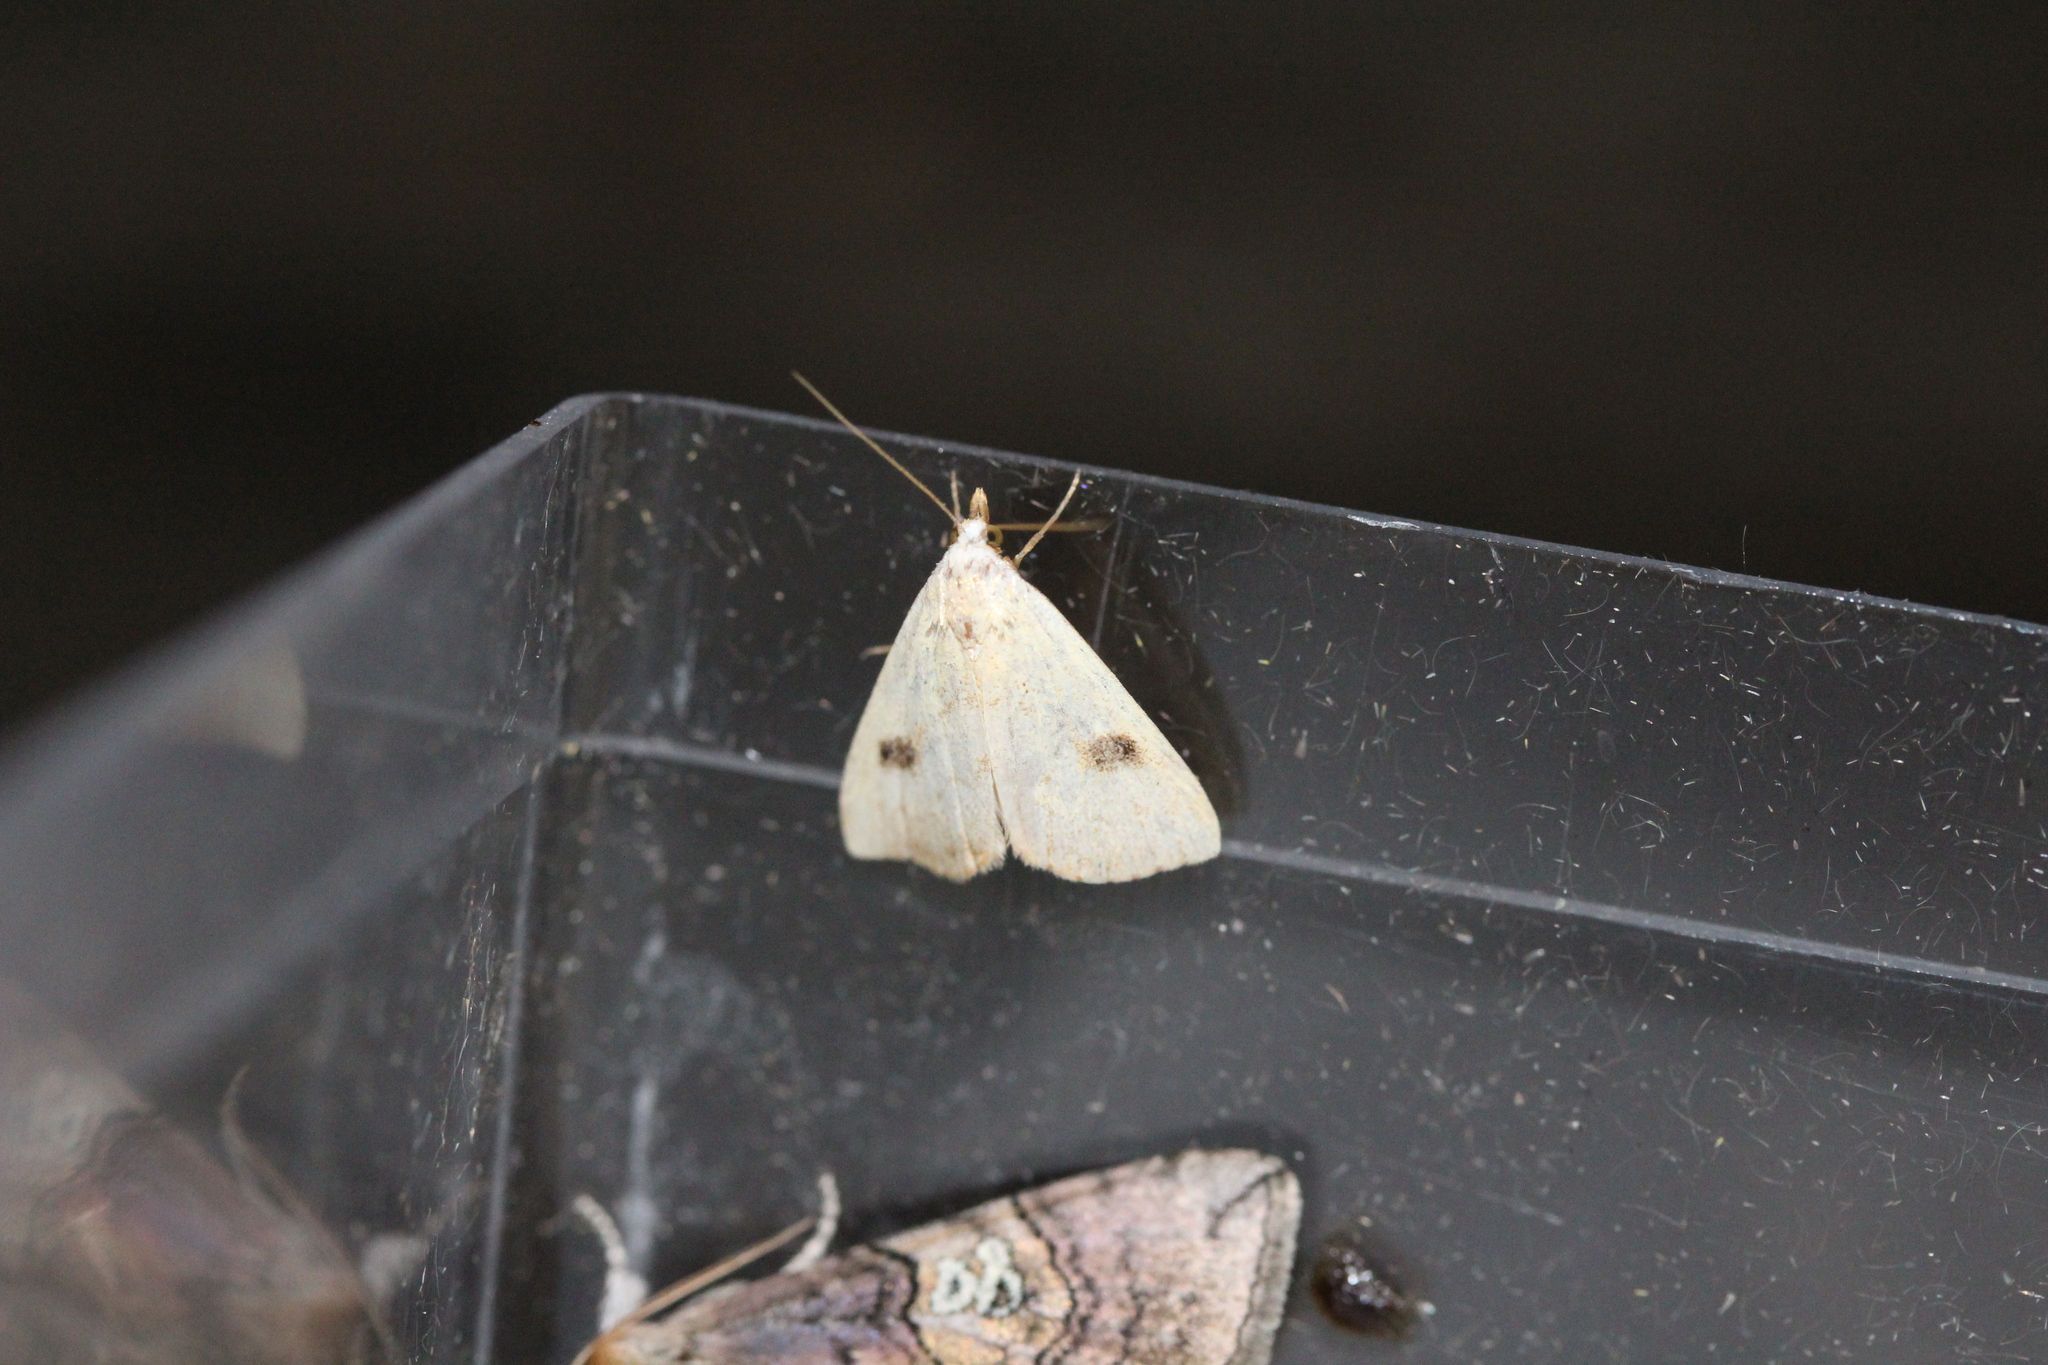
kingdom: Animalia
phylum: Arthropoda
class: Insecta
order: Lepidoptera
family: Erebidae
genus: Rivula
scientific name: Rivula sericealis
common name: Straw dot
